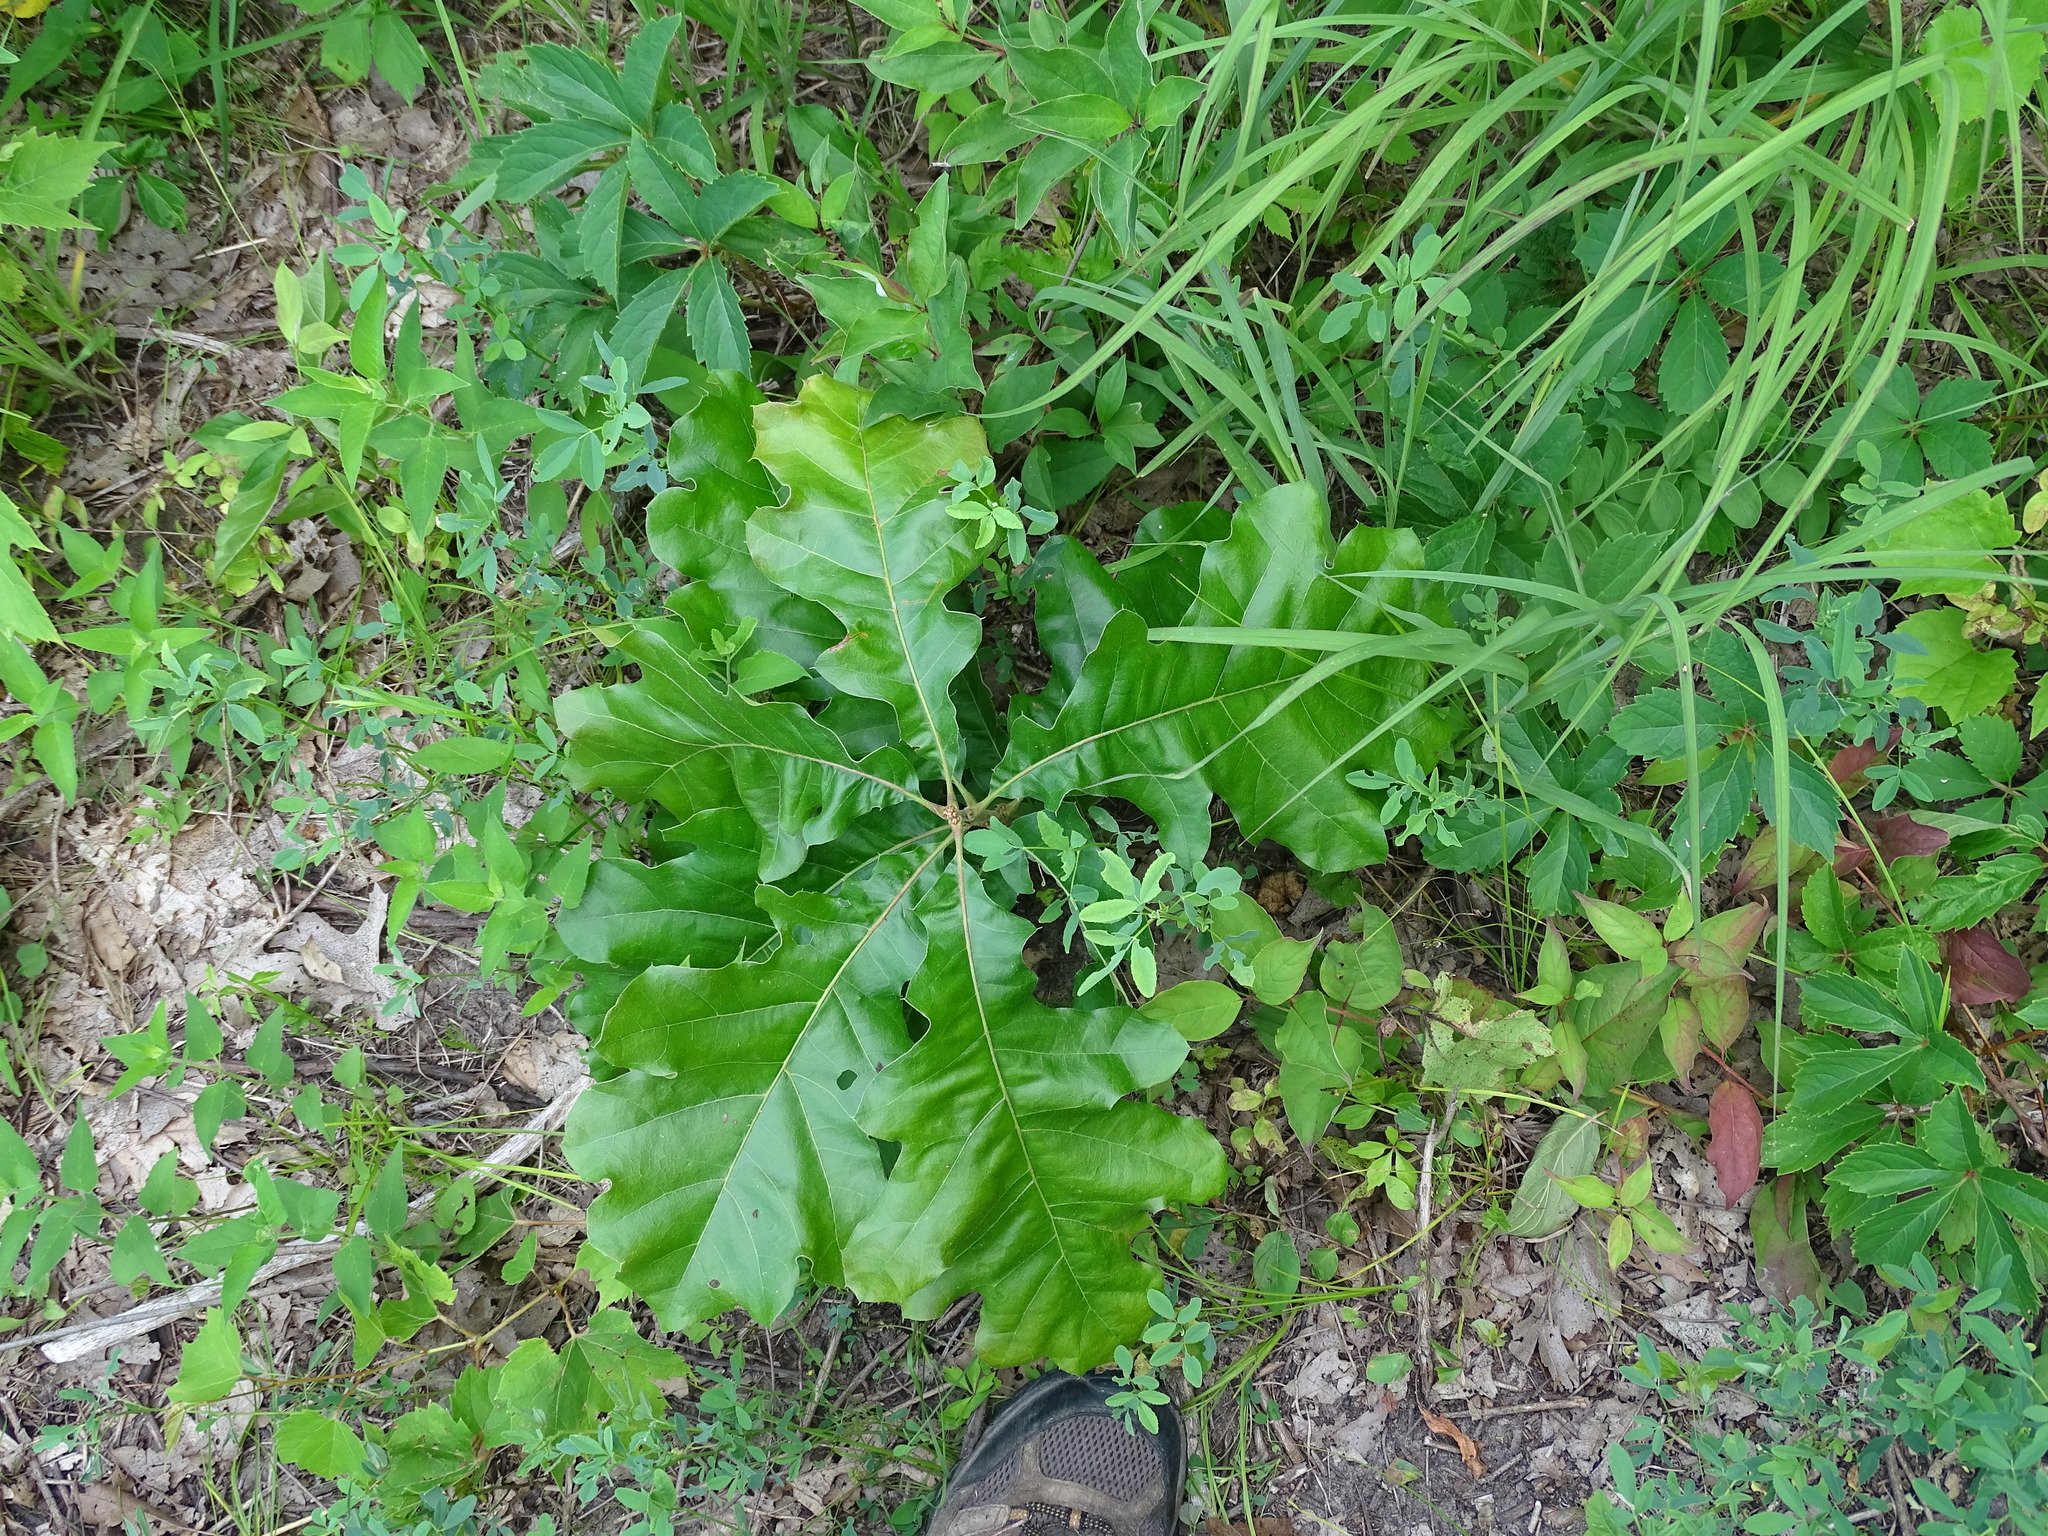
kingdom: Plantae
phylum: Tracheophyta
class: Magnoliopsida
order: Fagales
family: Fagaceae
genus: Quercus
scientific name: Quercus velutina
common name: Black oak
